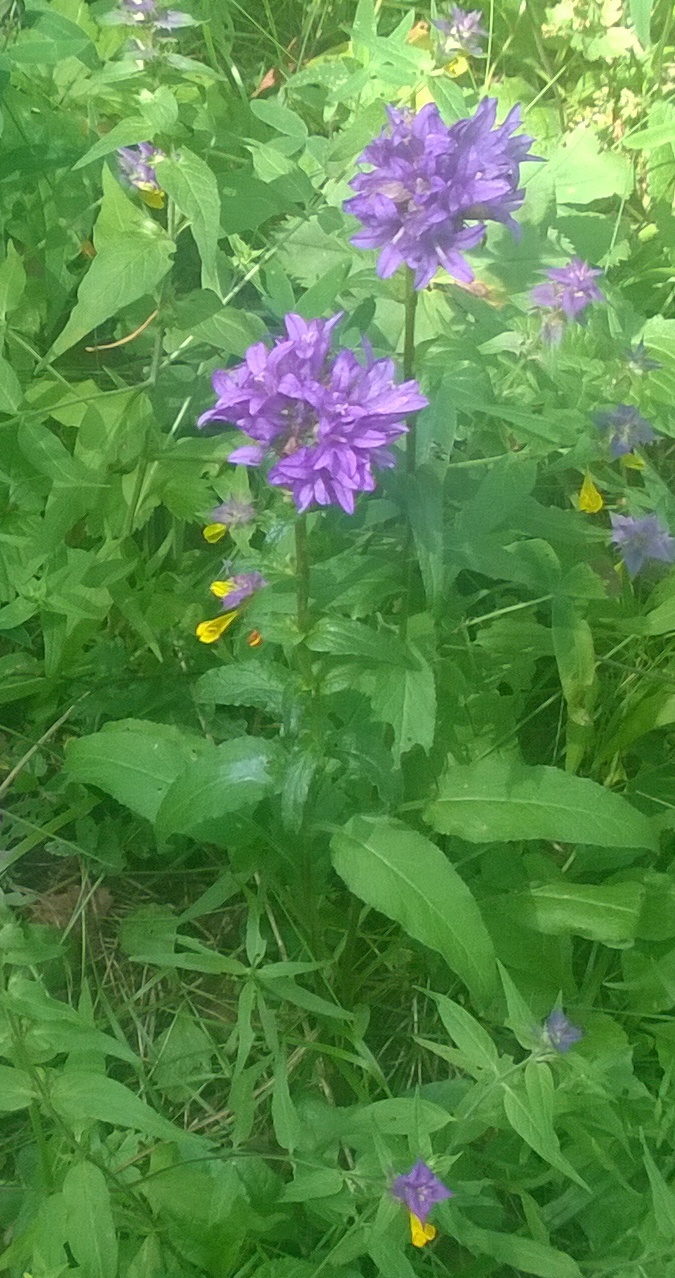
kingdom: Plantae
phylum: Tracheophyta
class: Magnoliopsida
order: Asterales
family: Campanulaceae
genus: Campanula
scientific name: Campanula glomerata
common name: Clustered bellflower
